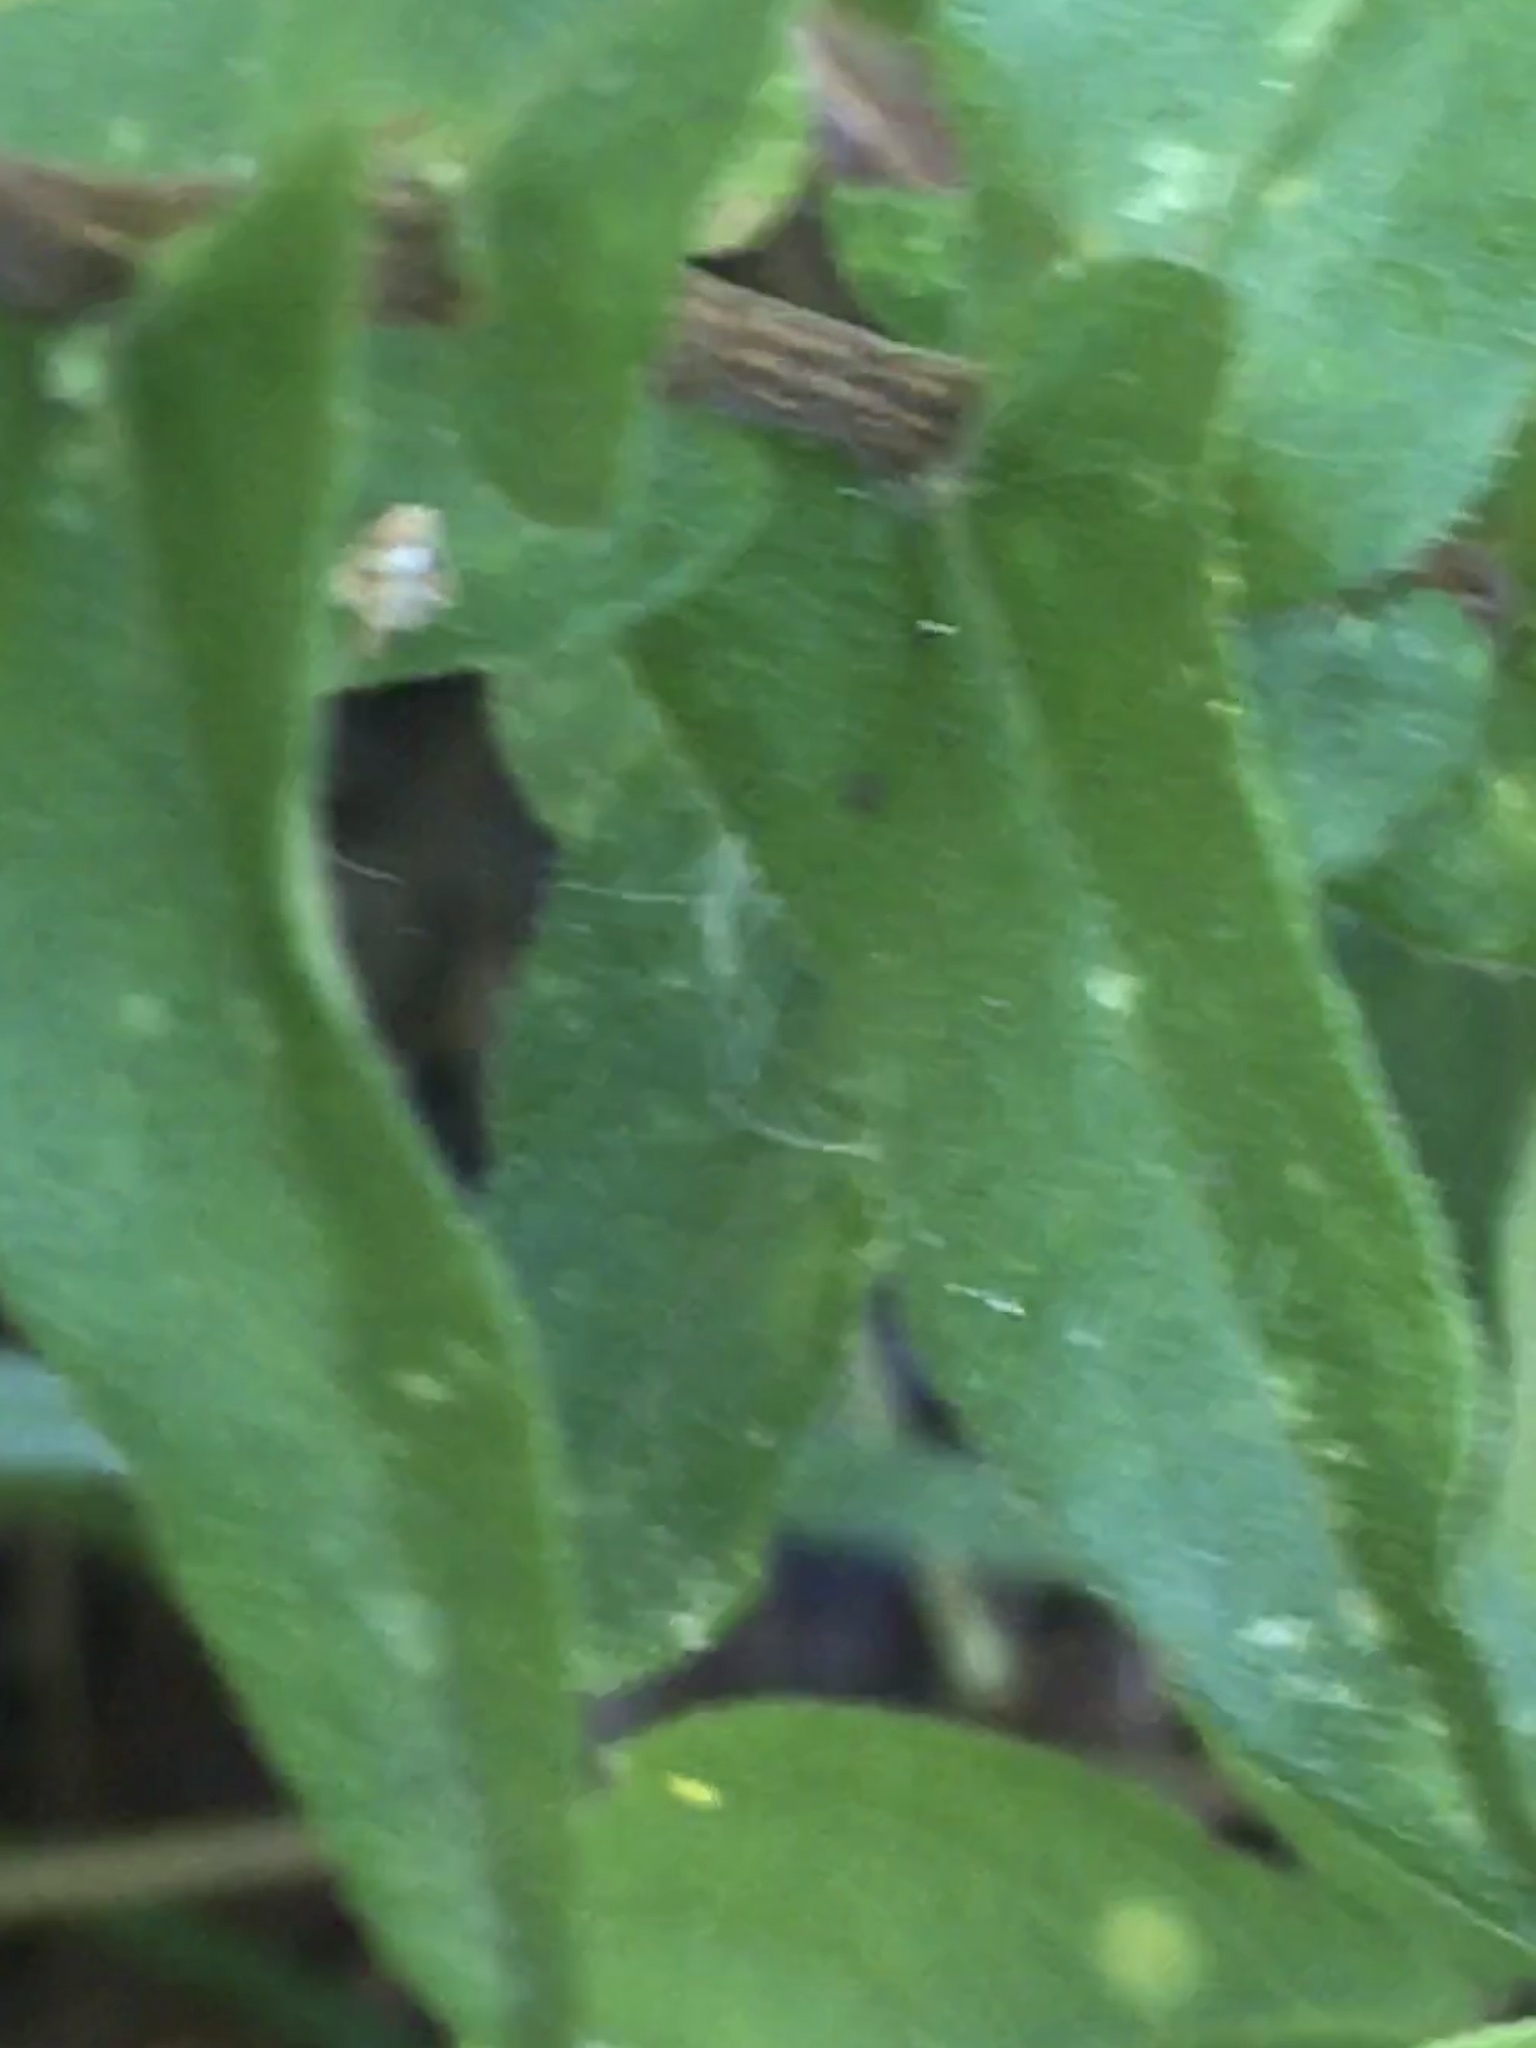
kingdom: Plantae
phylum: Tracheophyta
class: Magnoliopsida
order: Asterales
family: Asteraceae
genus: Symphyotrichum
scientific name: Symphyotrichum patens
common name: Late purple aster
